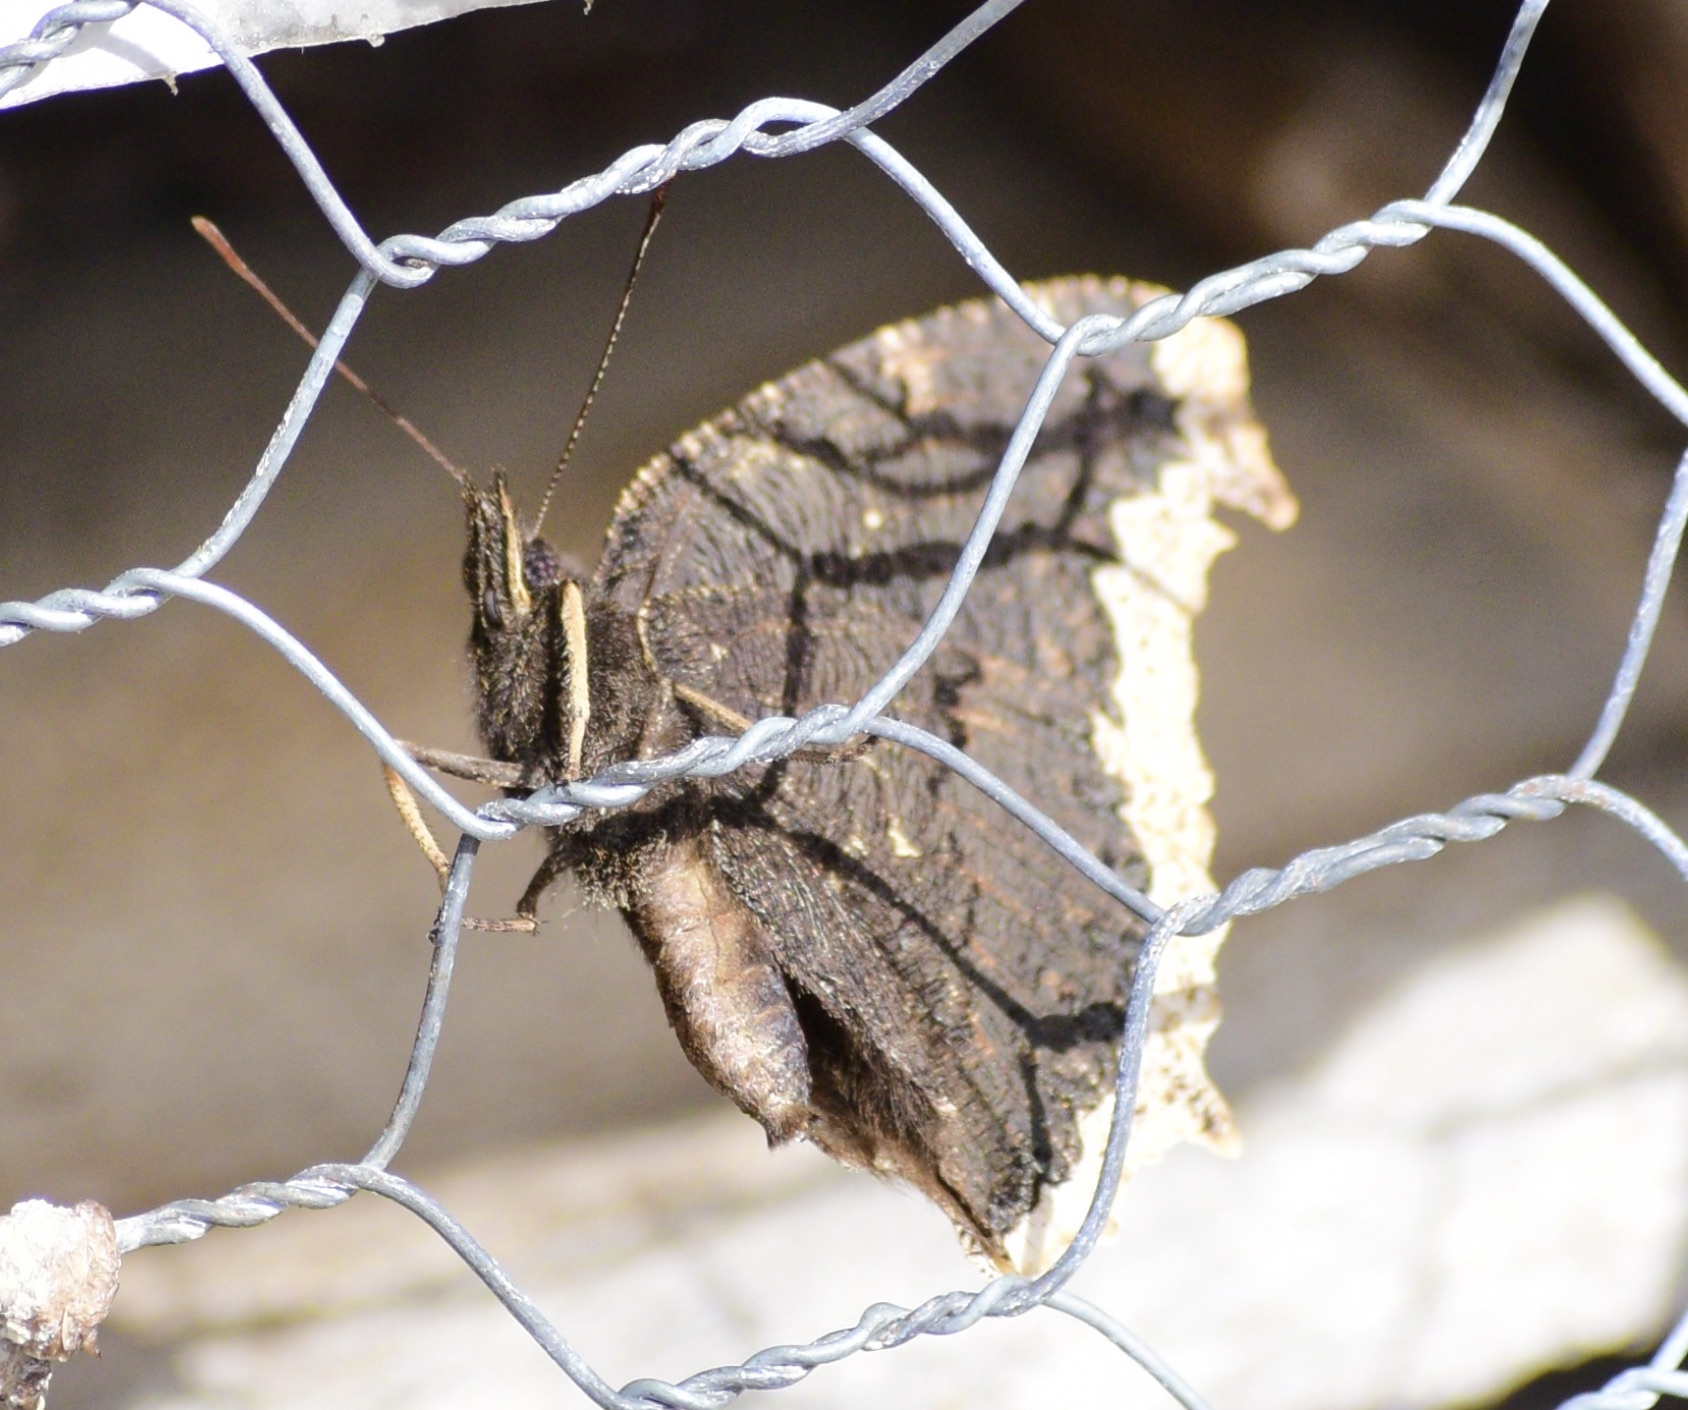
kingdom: Animalia
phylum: Arthropoda
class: Insecta
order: Lepidoptera
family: Nymphalidae
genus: Nymphalis
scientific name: Nymphalis antiopa
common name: Camberwell beauty
